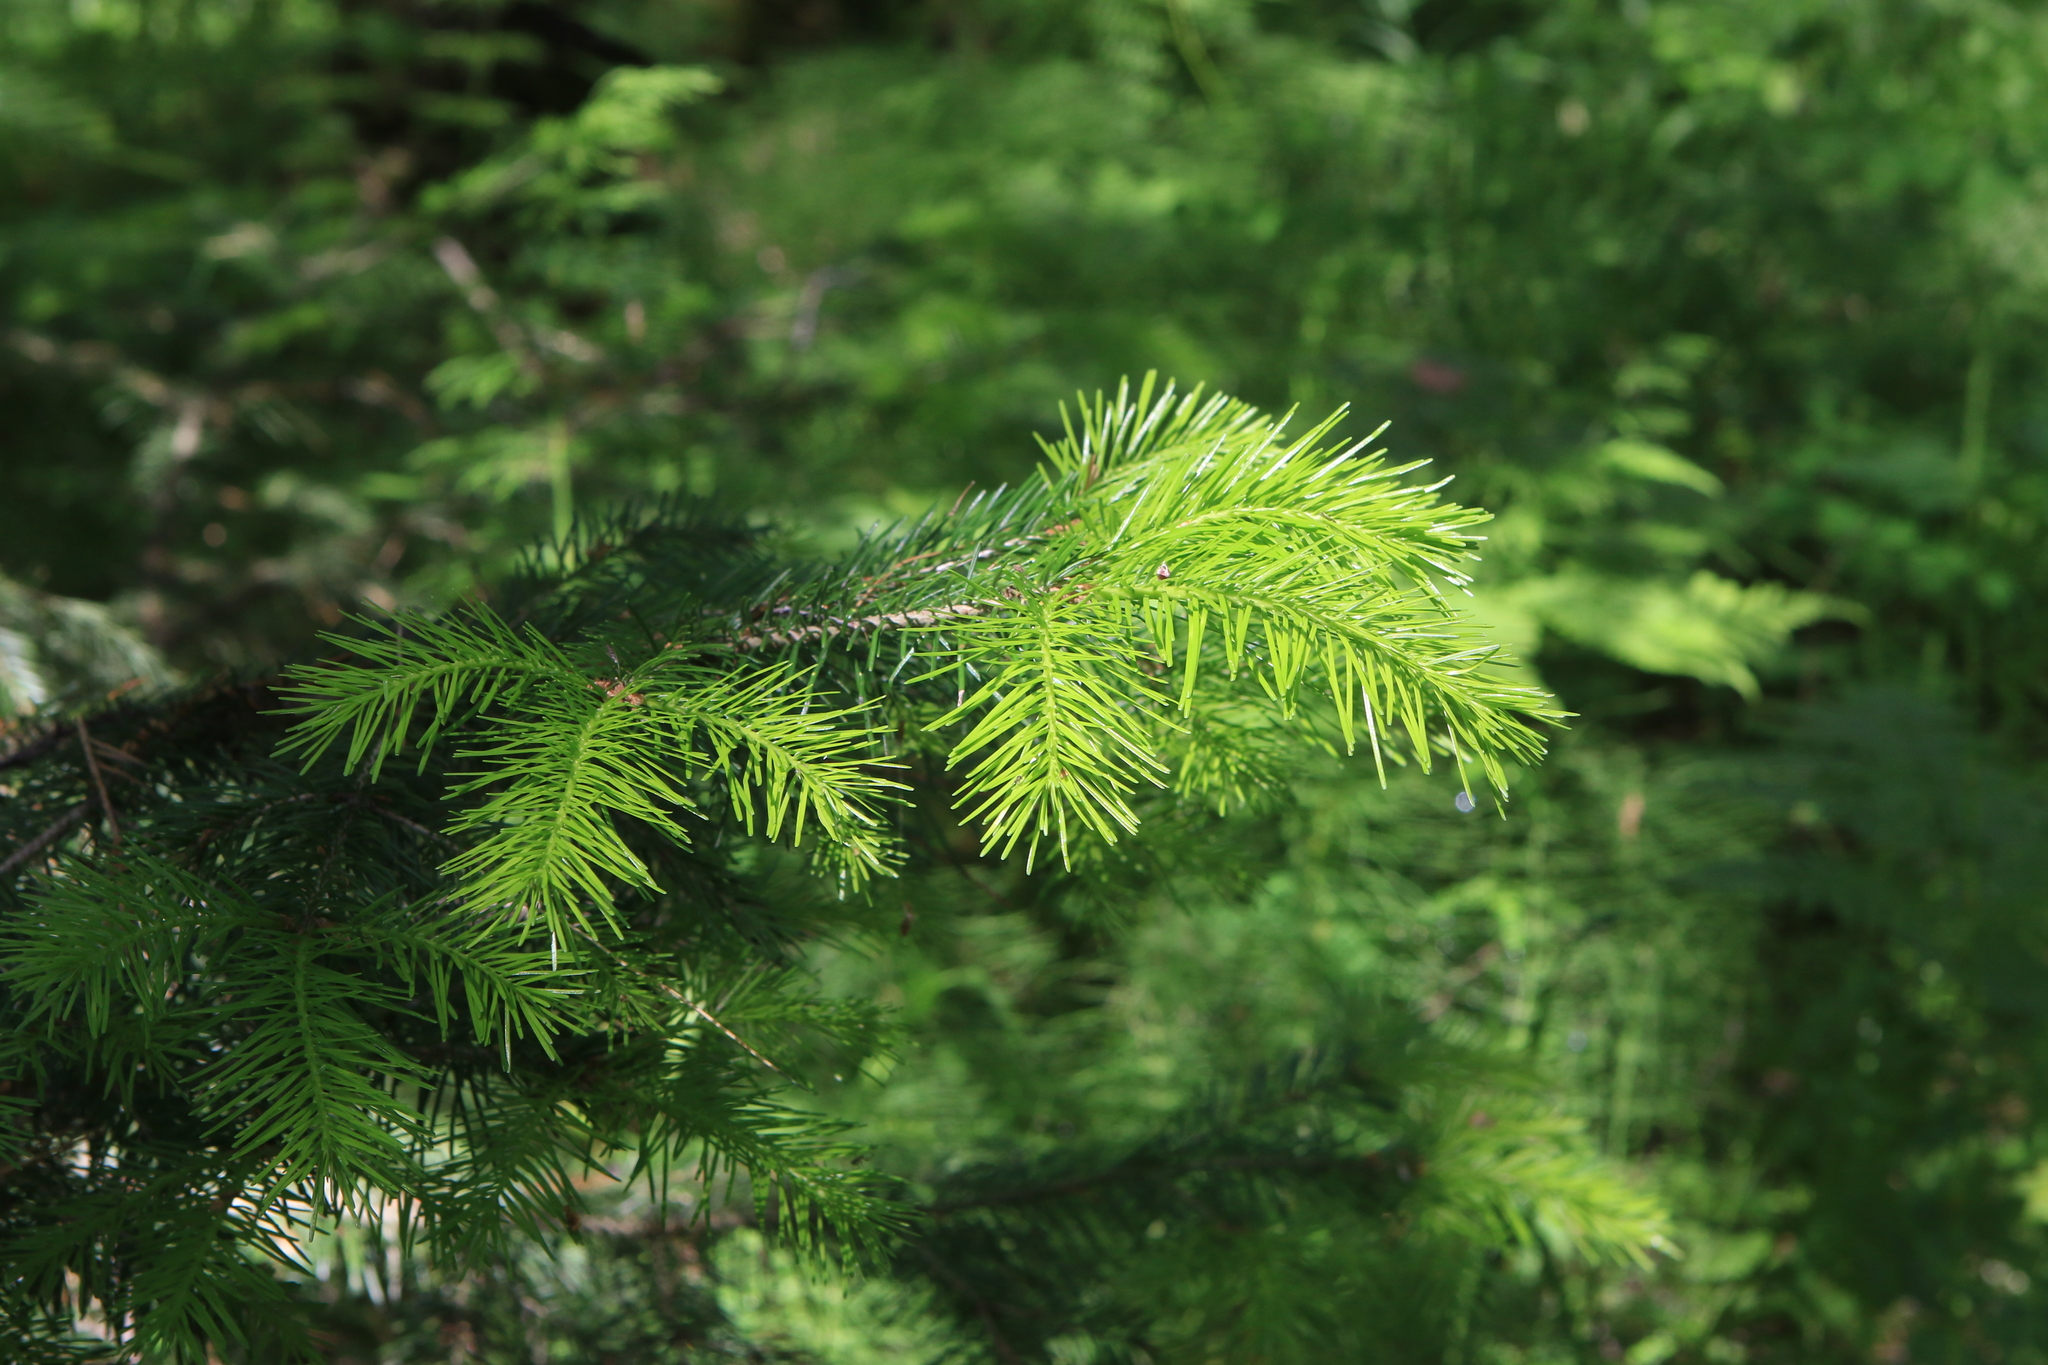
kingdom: Plantae
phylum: Tracheophyta
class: Pinopsida
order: Pinales
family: Pinaceae
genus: Abies
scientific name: Abies sibirica
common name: Siberian fir
